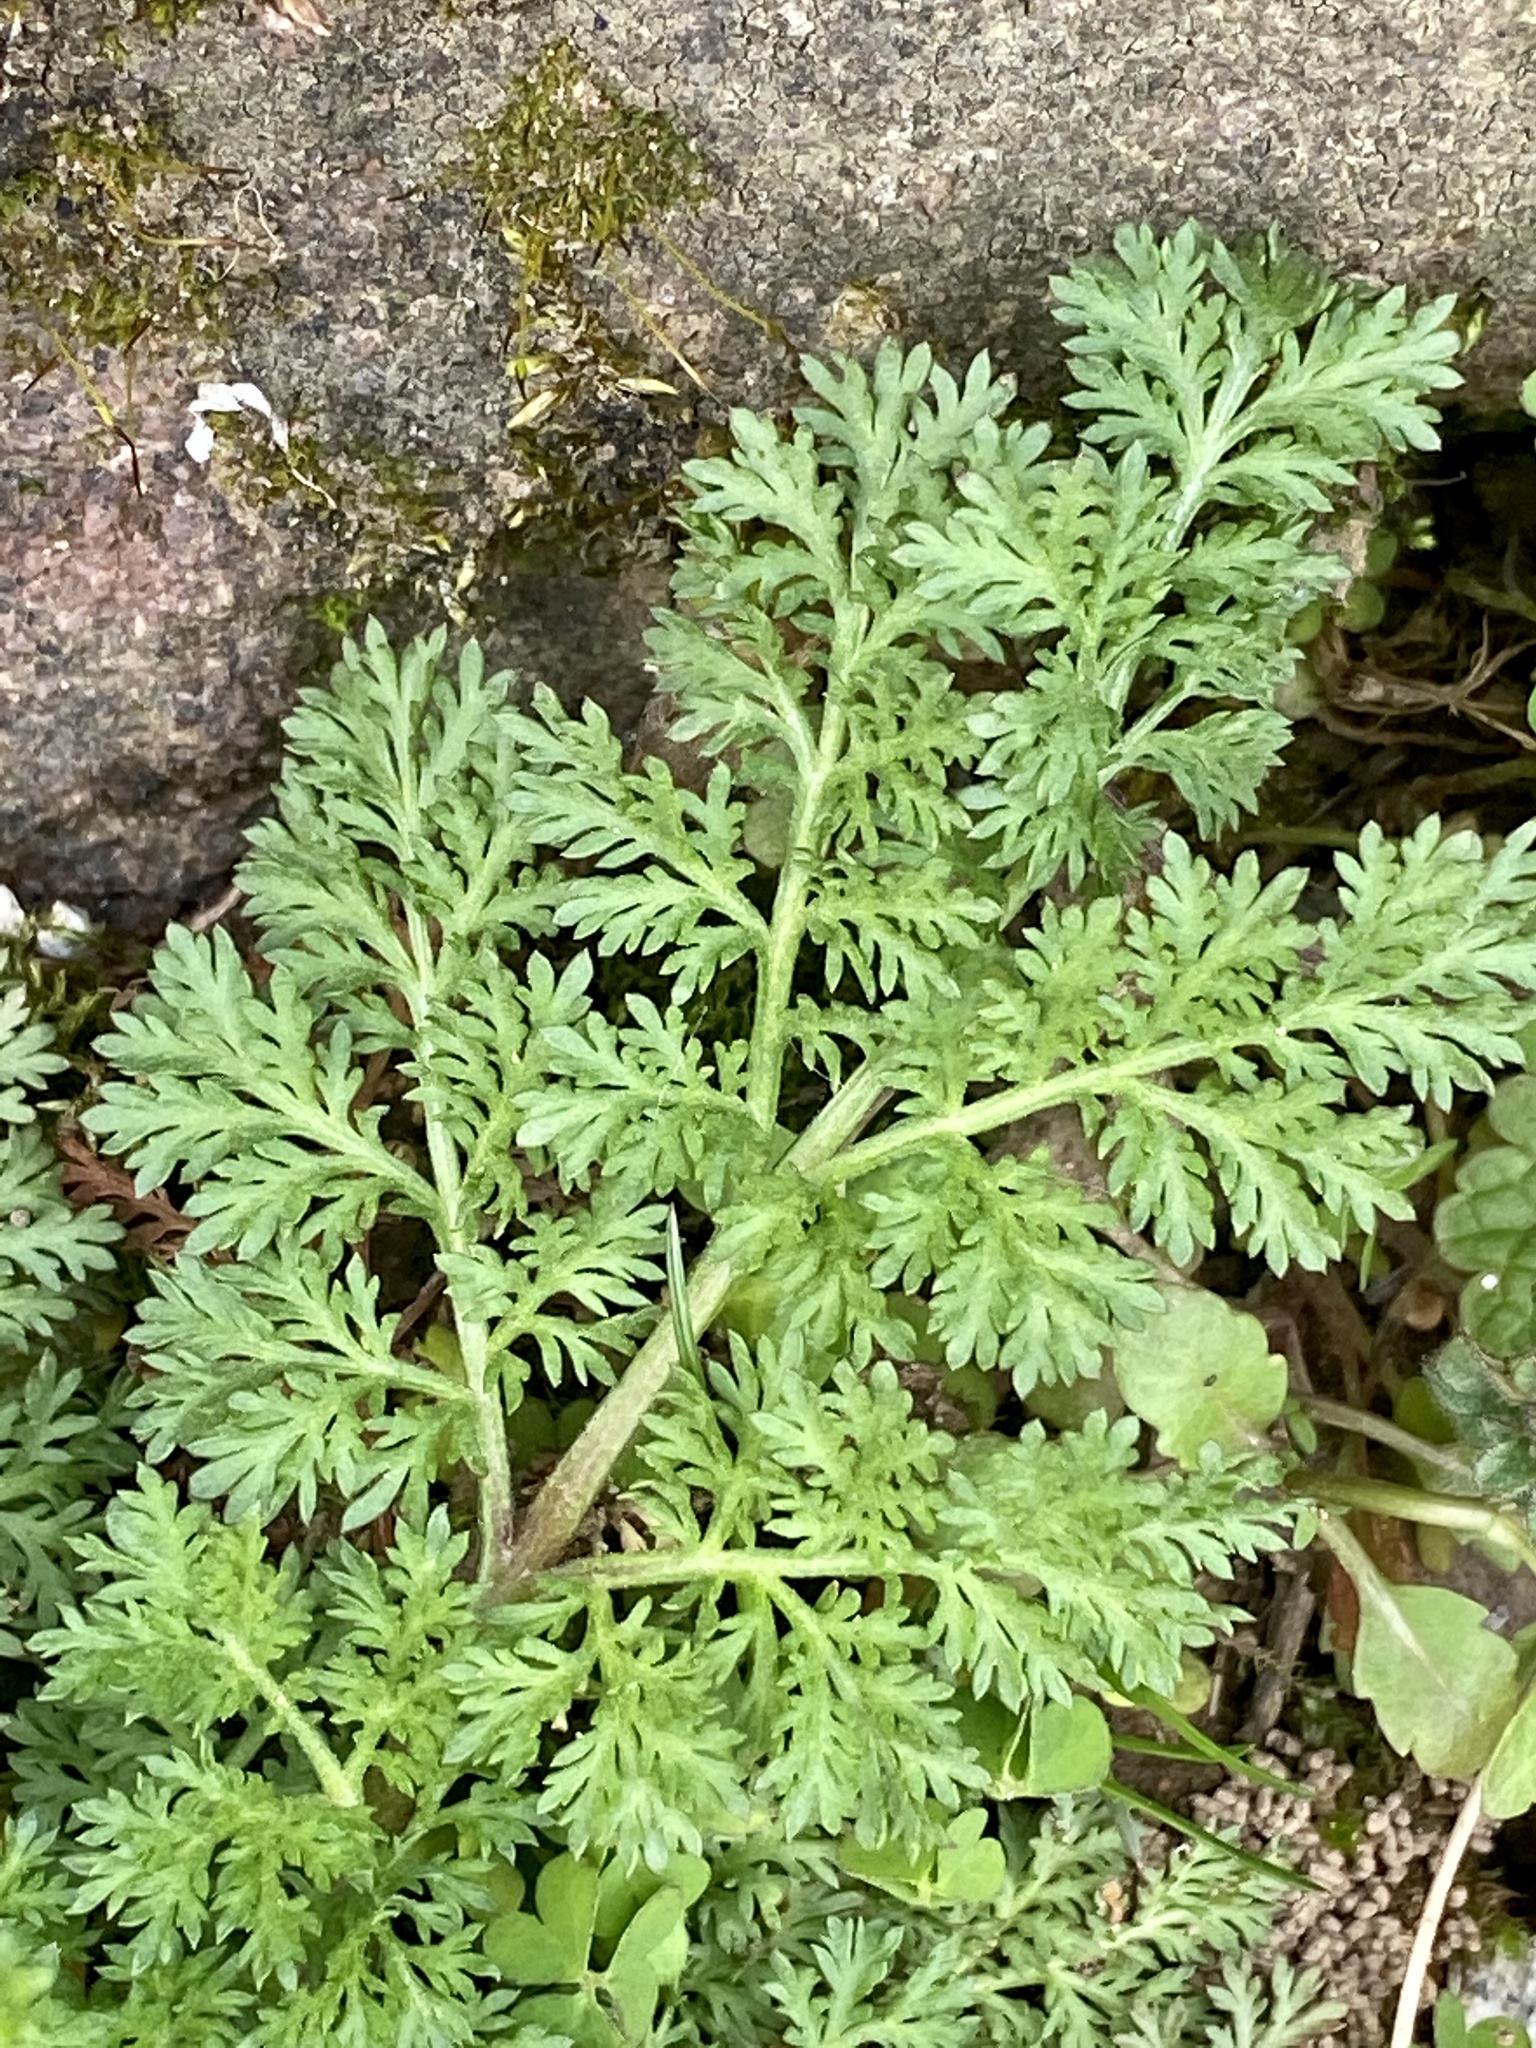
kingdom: Plantae
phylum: Tracheophyta
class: Magnoliopsida
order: Asterales
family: Asteraceae
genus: Artemisia
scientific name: Artemisia annua
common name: Sweet sagewort
